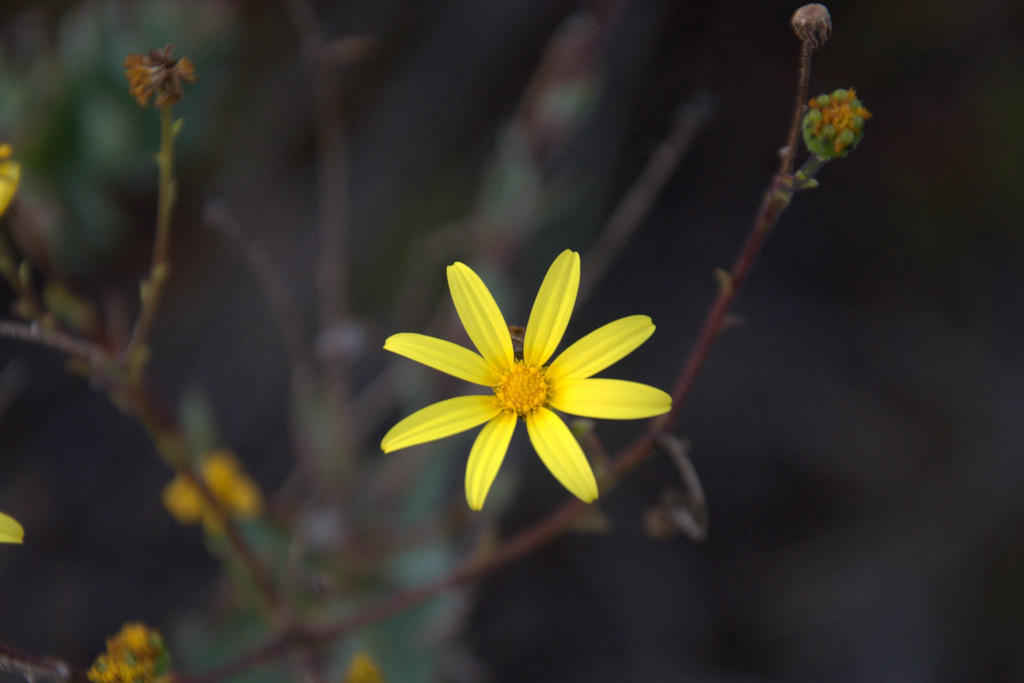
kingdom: Plantae
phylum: Tracheophyta
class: Magnoliopsida
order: Asterales
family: Asteraceae
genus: Osteospermum
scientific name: Osteospermum rotundifolium
